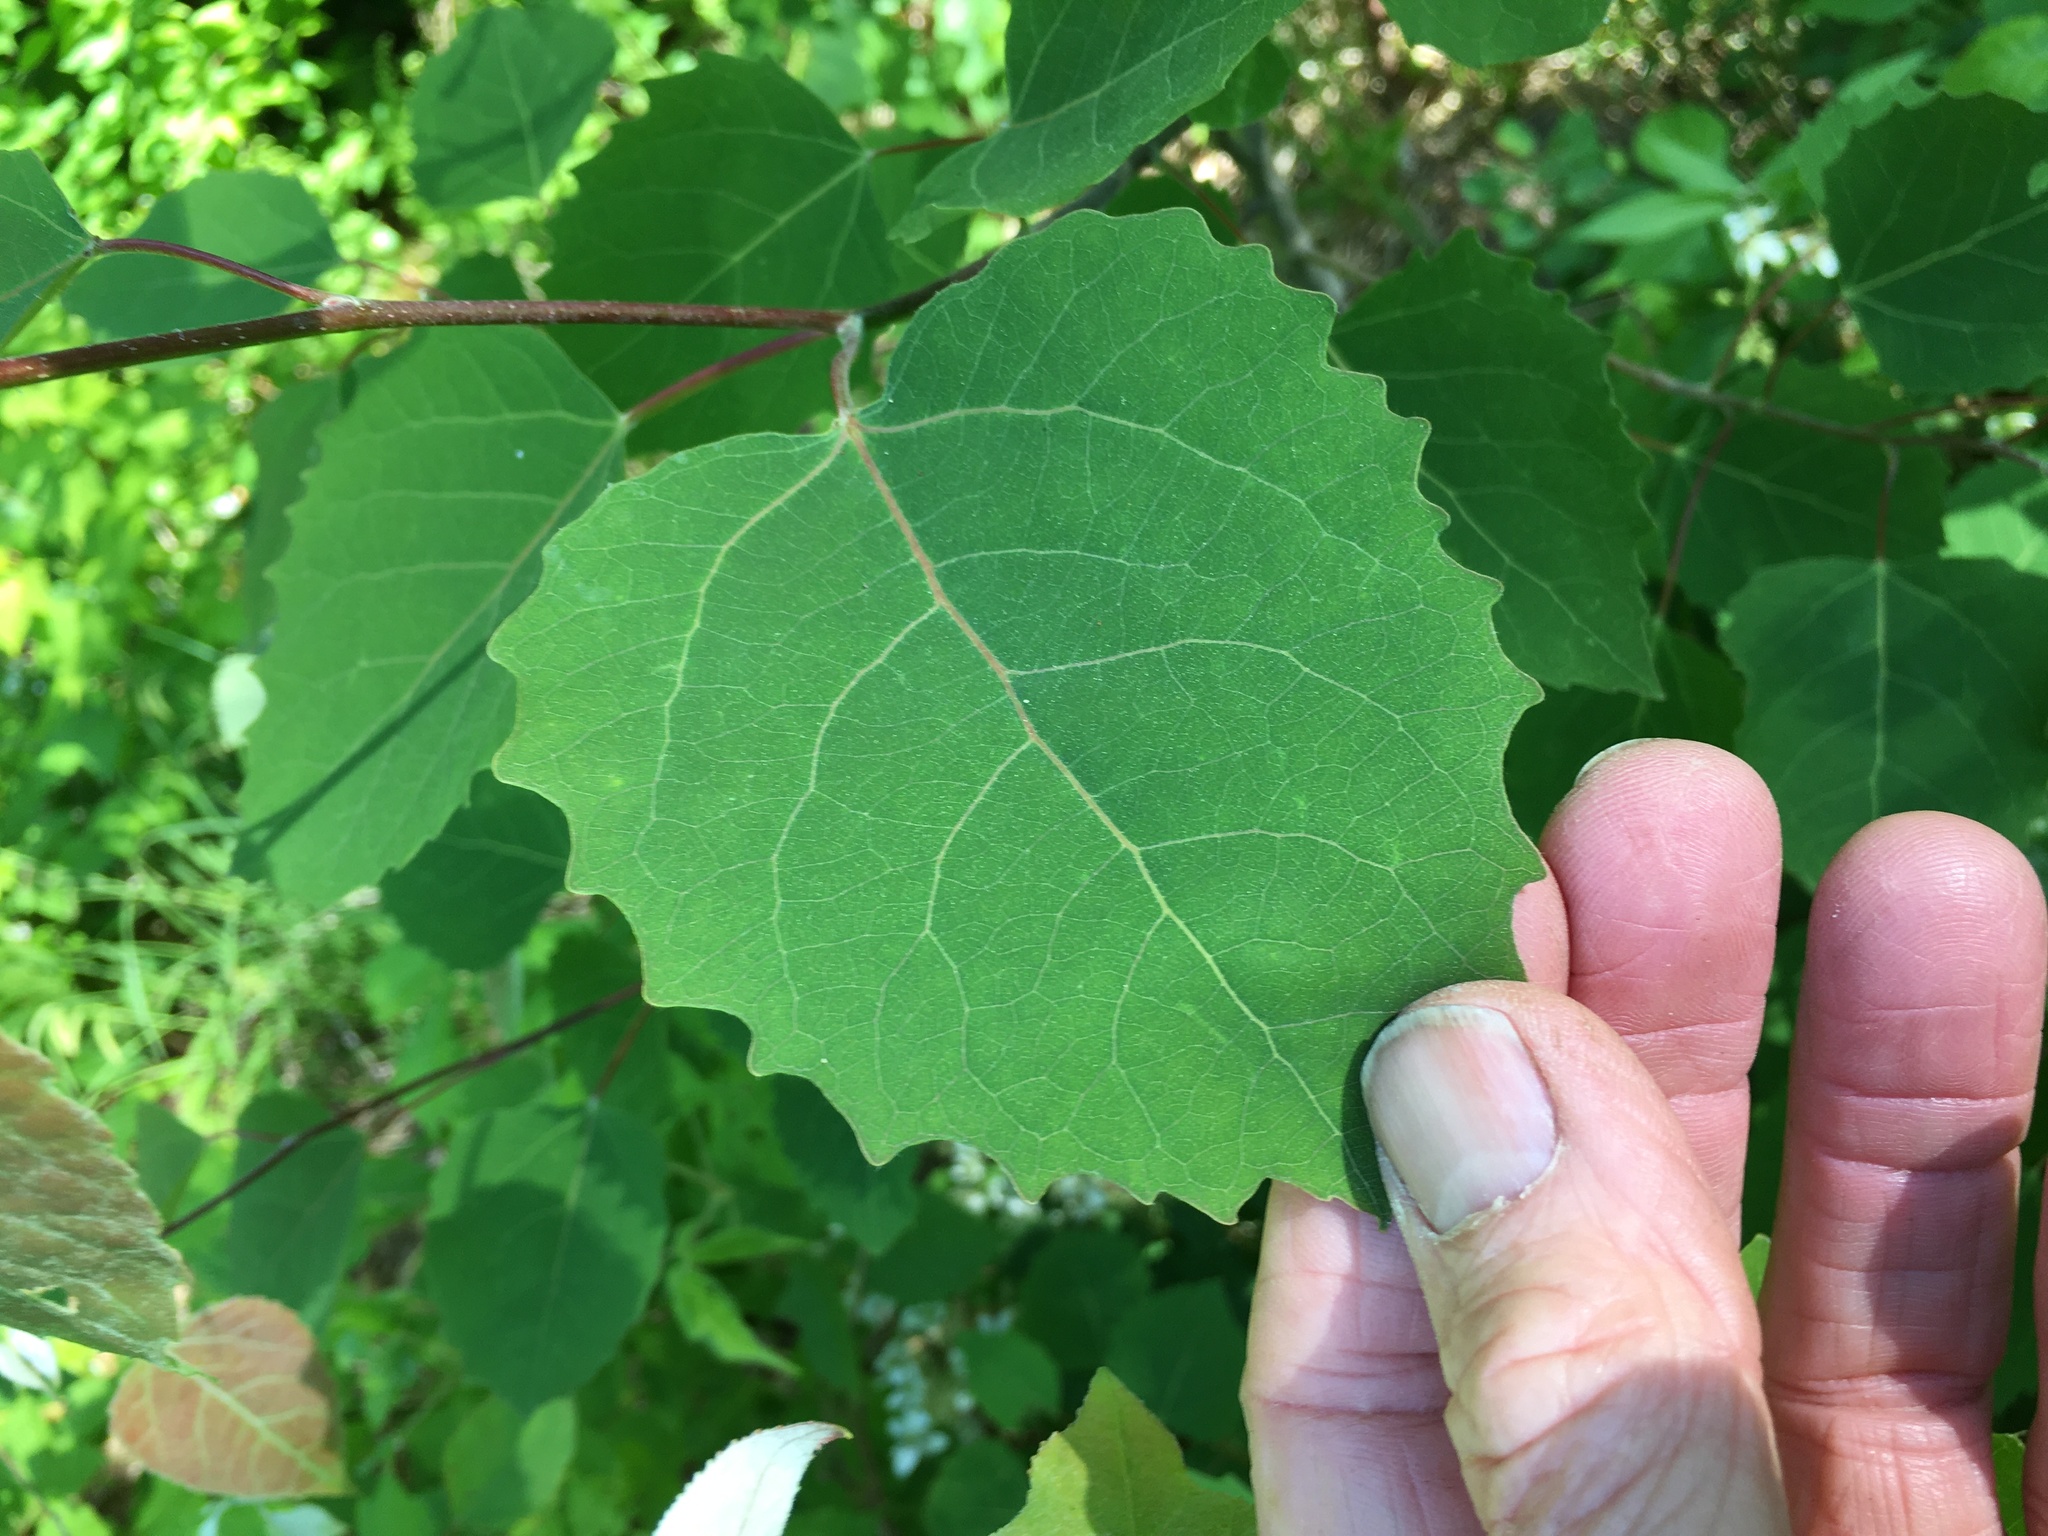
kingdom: Plantae
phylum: Tracheophyta
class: Magnoliopsida
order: Malpighiales
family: Salicaceae
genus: Populus
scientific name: Populus grandidentata
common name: Bigtooth aspen
